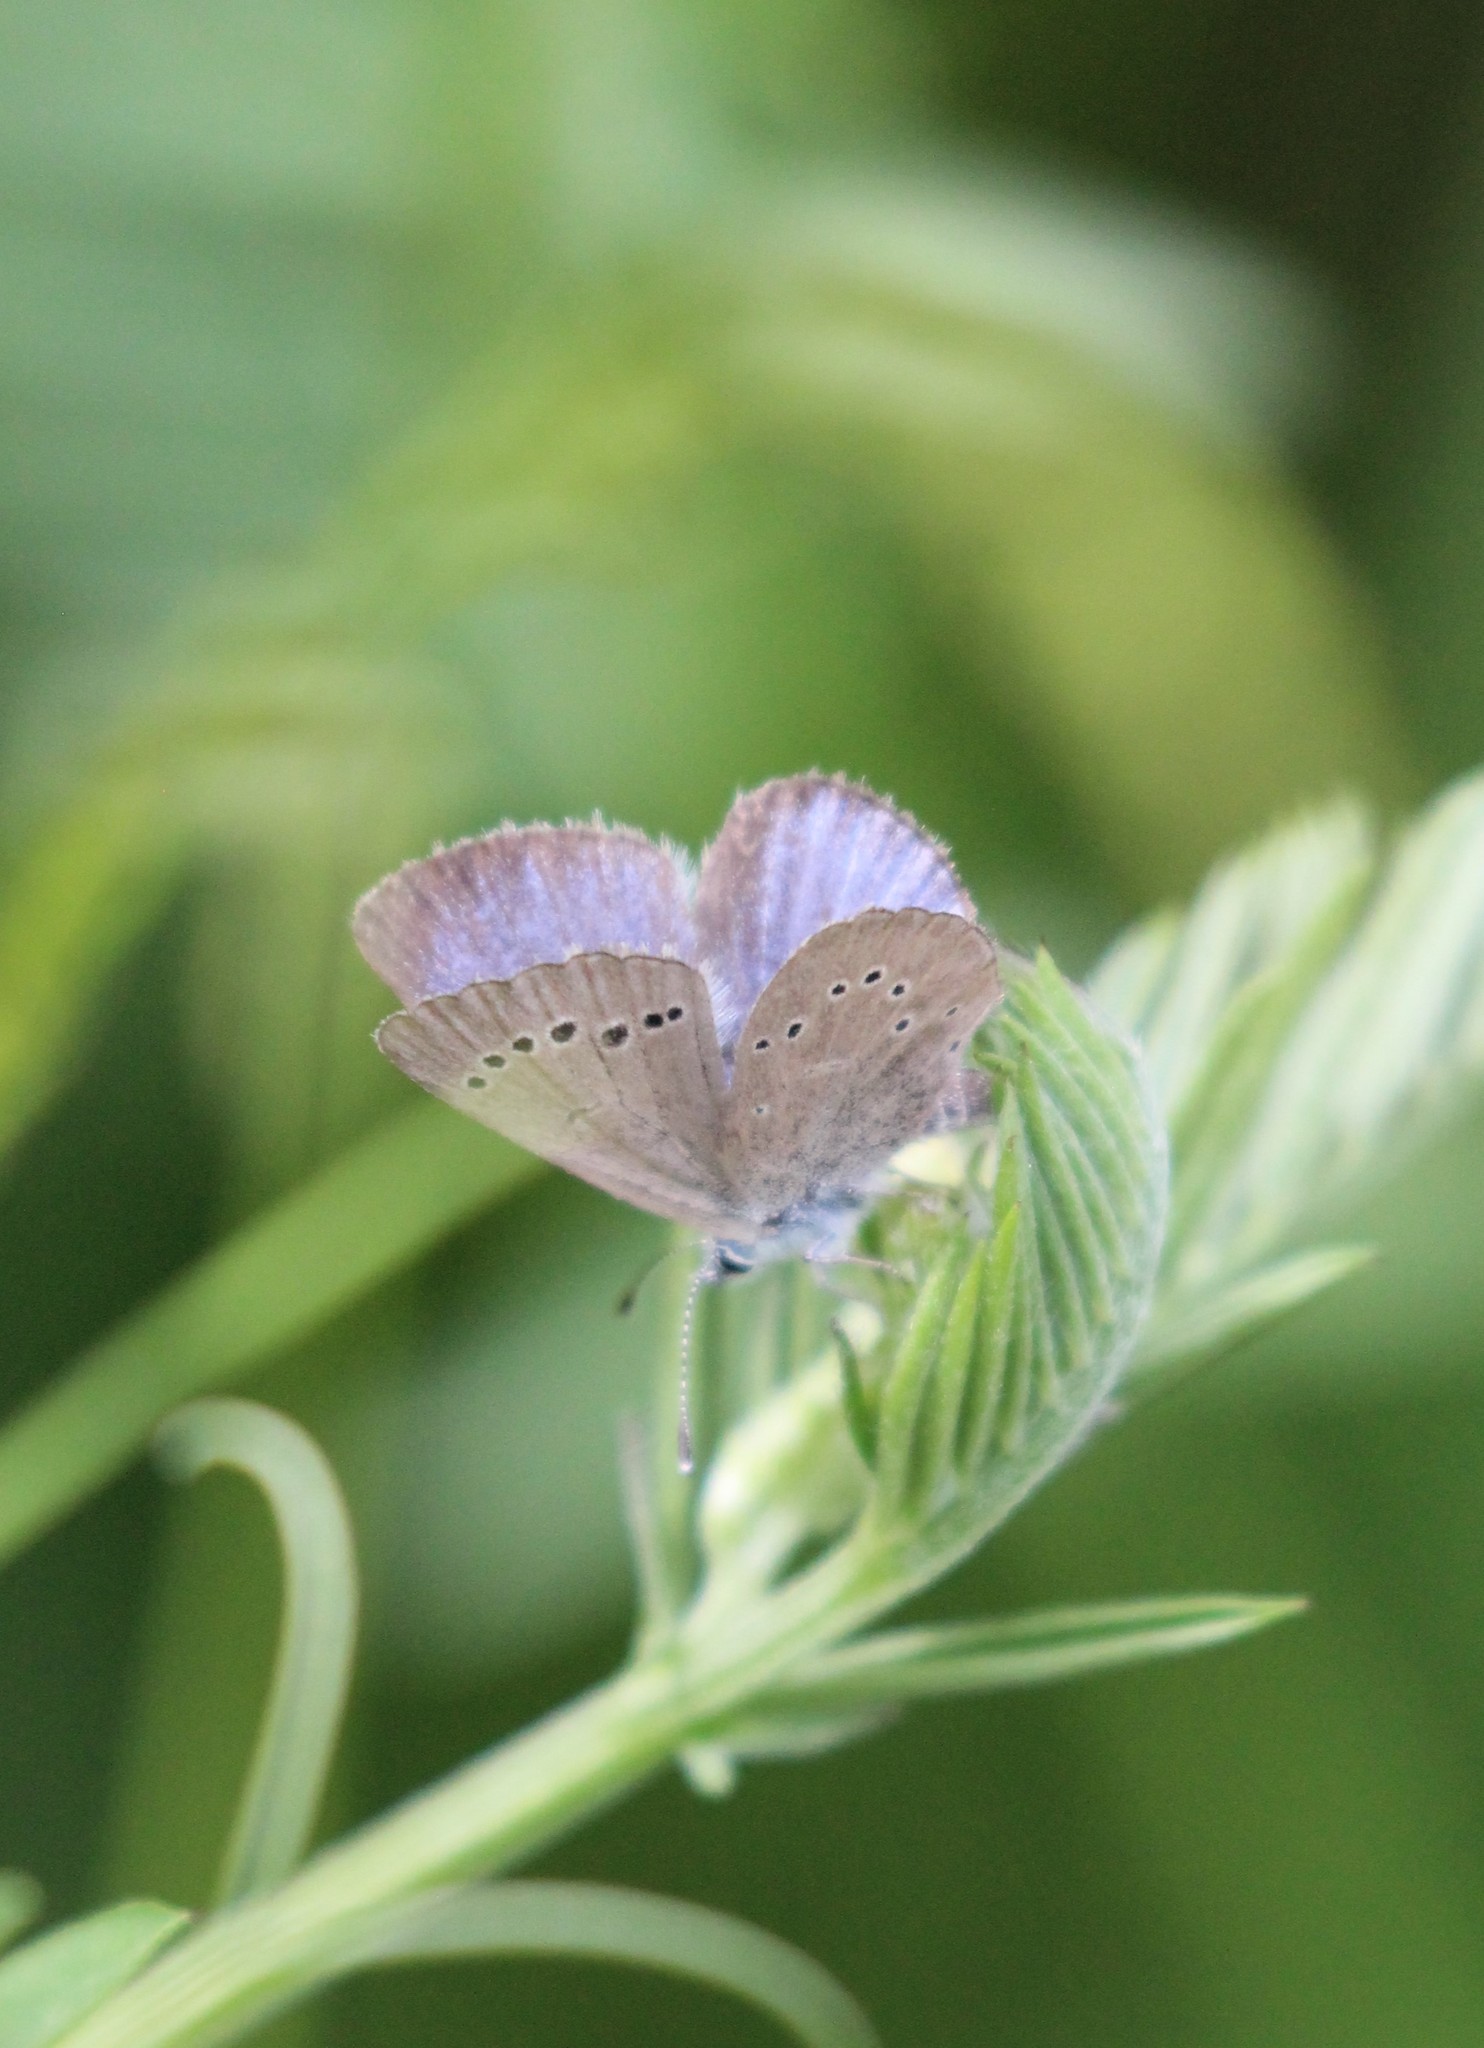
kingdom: Animalia
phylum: Arthropoda
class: Insecta
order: Lepidoptera
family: Lycaenidae
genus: Glaucopsyche
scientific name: Glaucopsyche lygdamus
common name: Silvery blue
